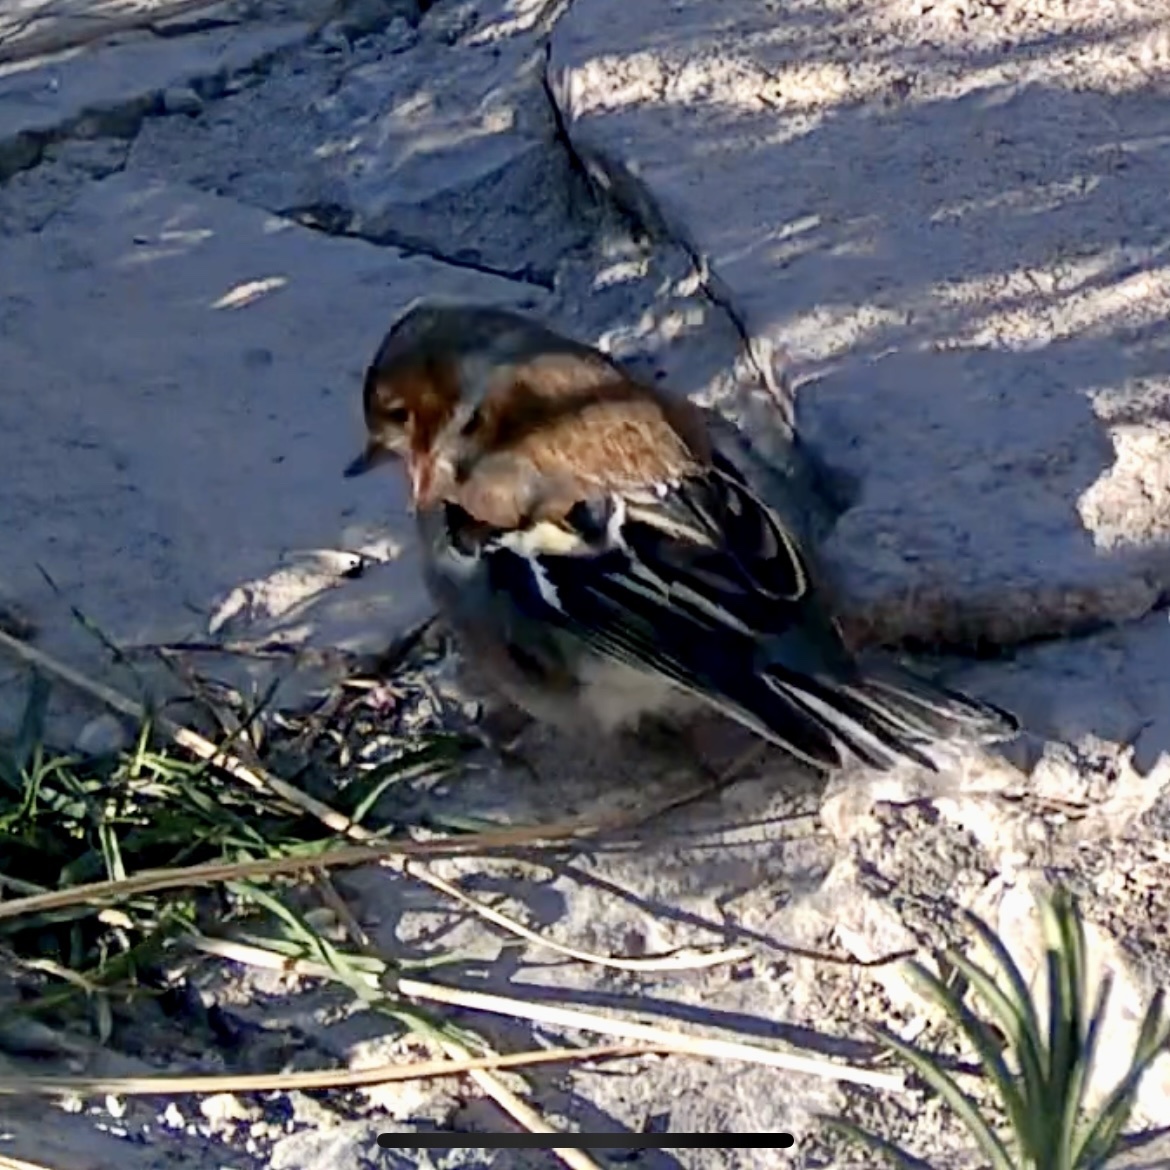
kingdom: Animalia
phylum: Chordata
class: Aves
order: Passeriformes
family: Fringillidae
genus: Fringilla
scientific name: Fringilla coelebs
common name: Common chaffinch
